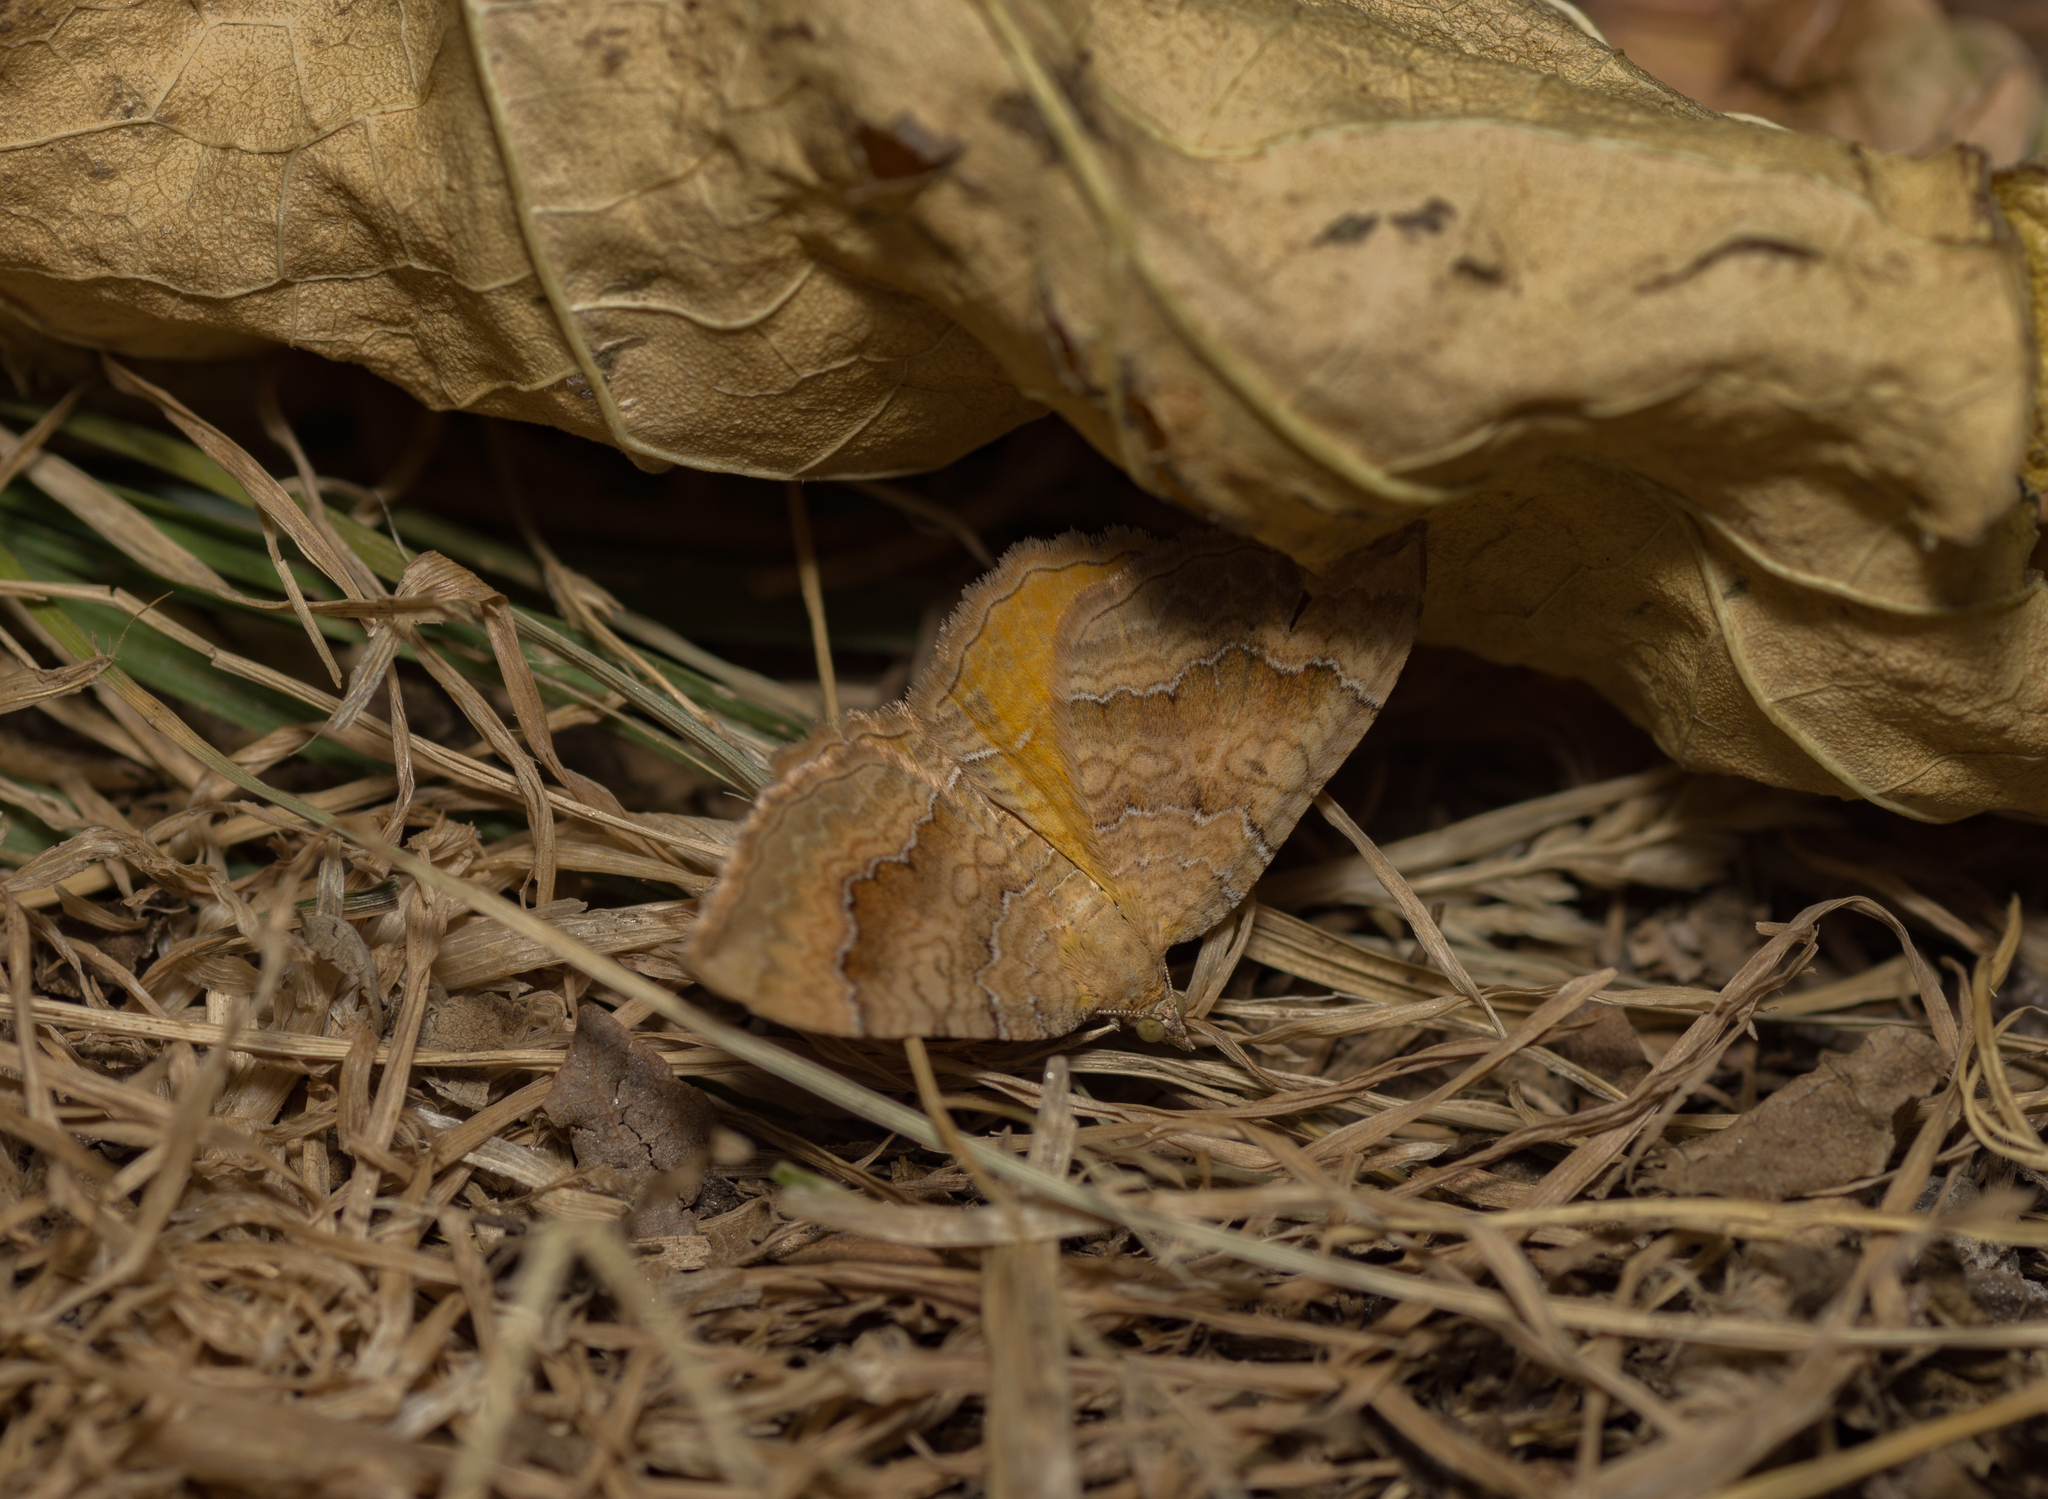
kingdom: Animalia
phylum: Arthropoda
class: Insecta
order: Lepidoptera
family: Geometridae
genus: Camptogramma
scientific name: Camptogramma bilineata
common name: Yellow shell
